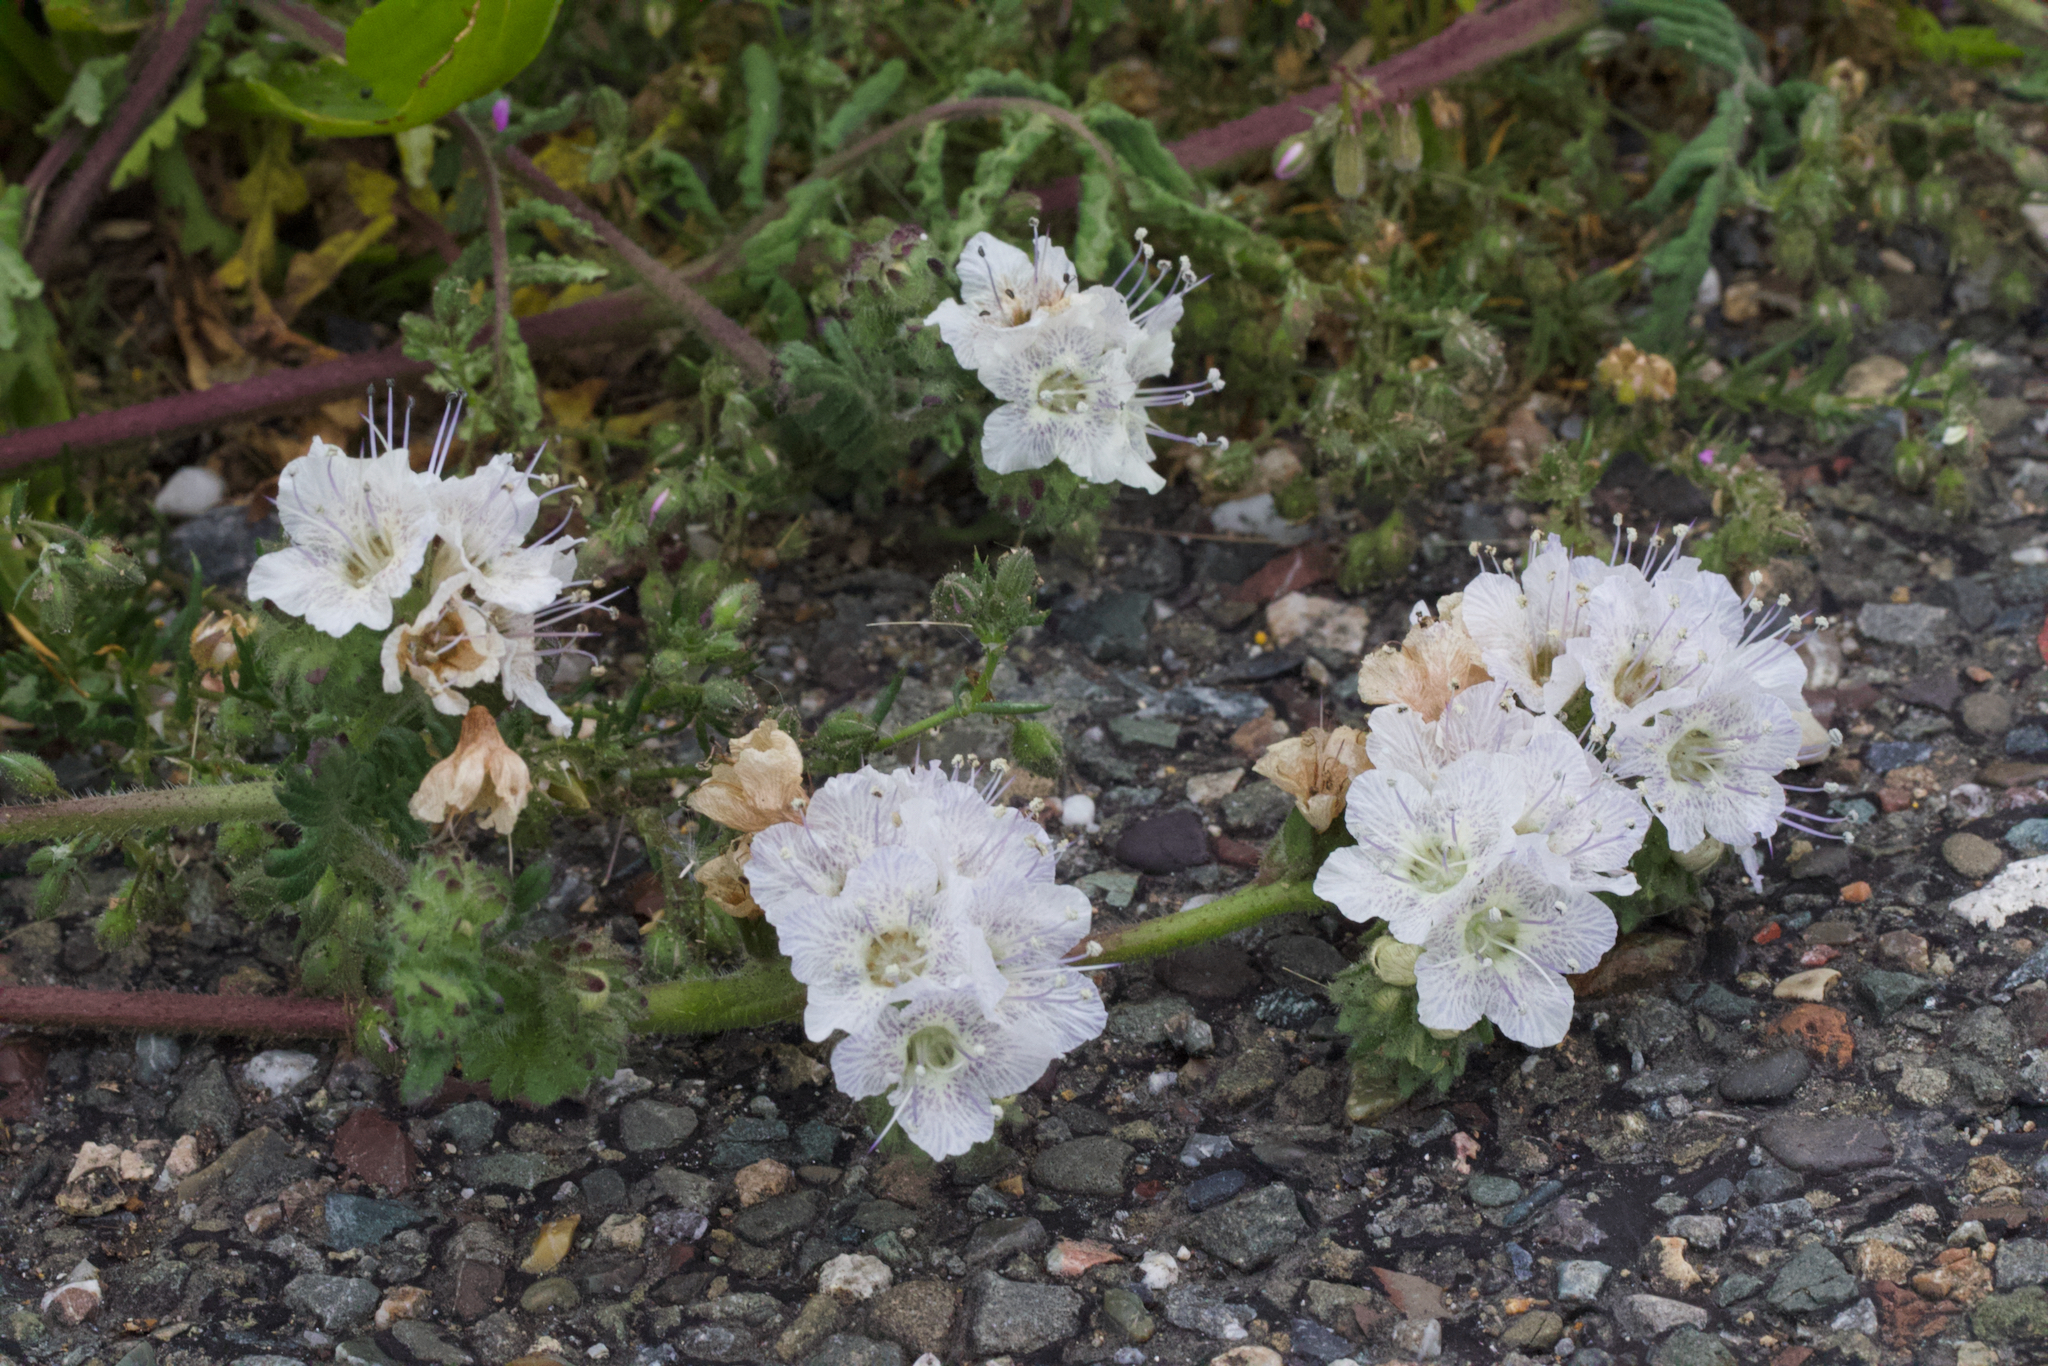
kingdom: Plantae
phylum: Tracheophyta
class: Magnoliopsida
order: Boraginales
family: Hydrophyllaceae
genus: Phacelia
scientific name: Phacelia distans
